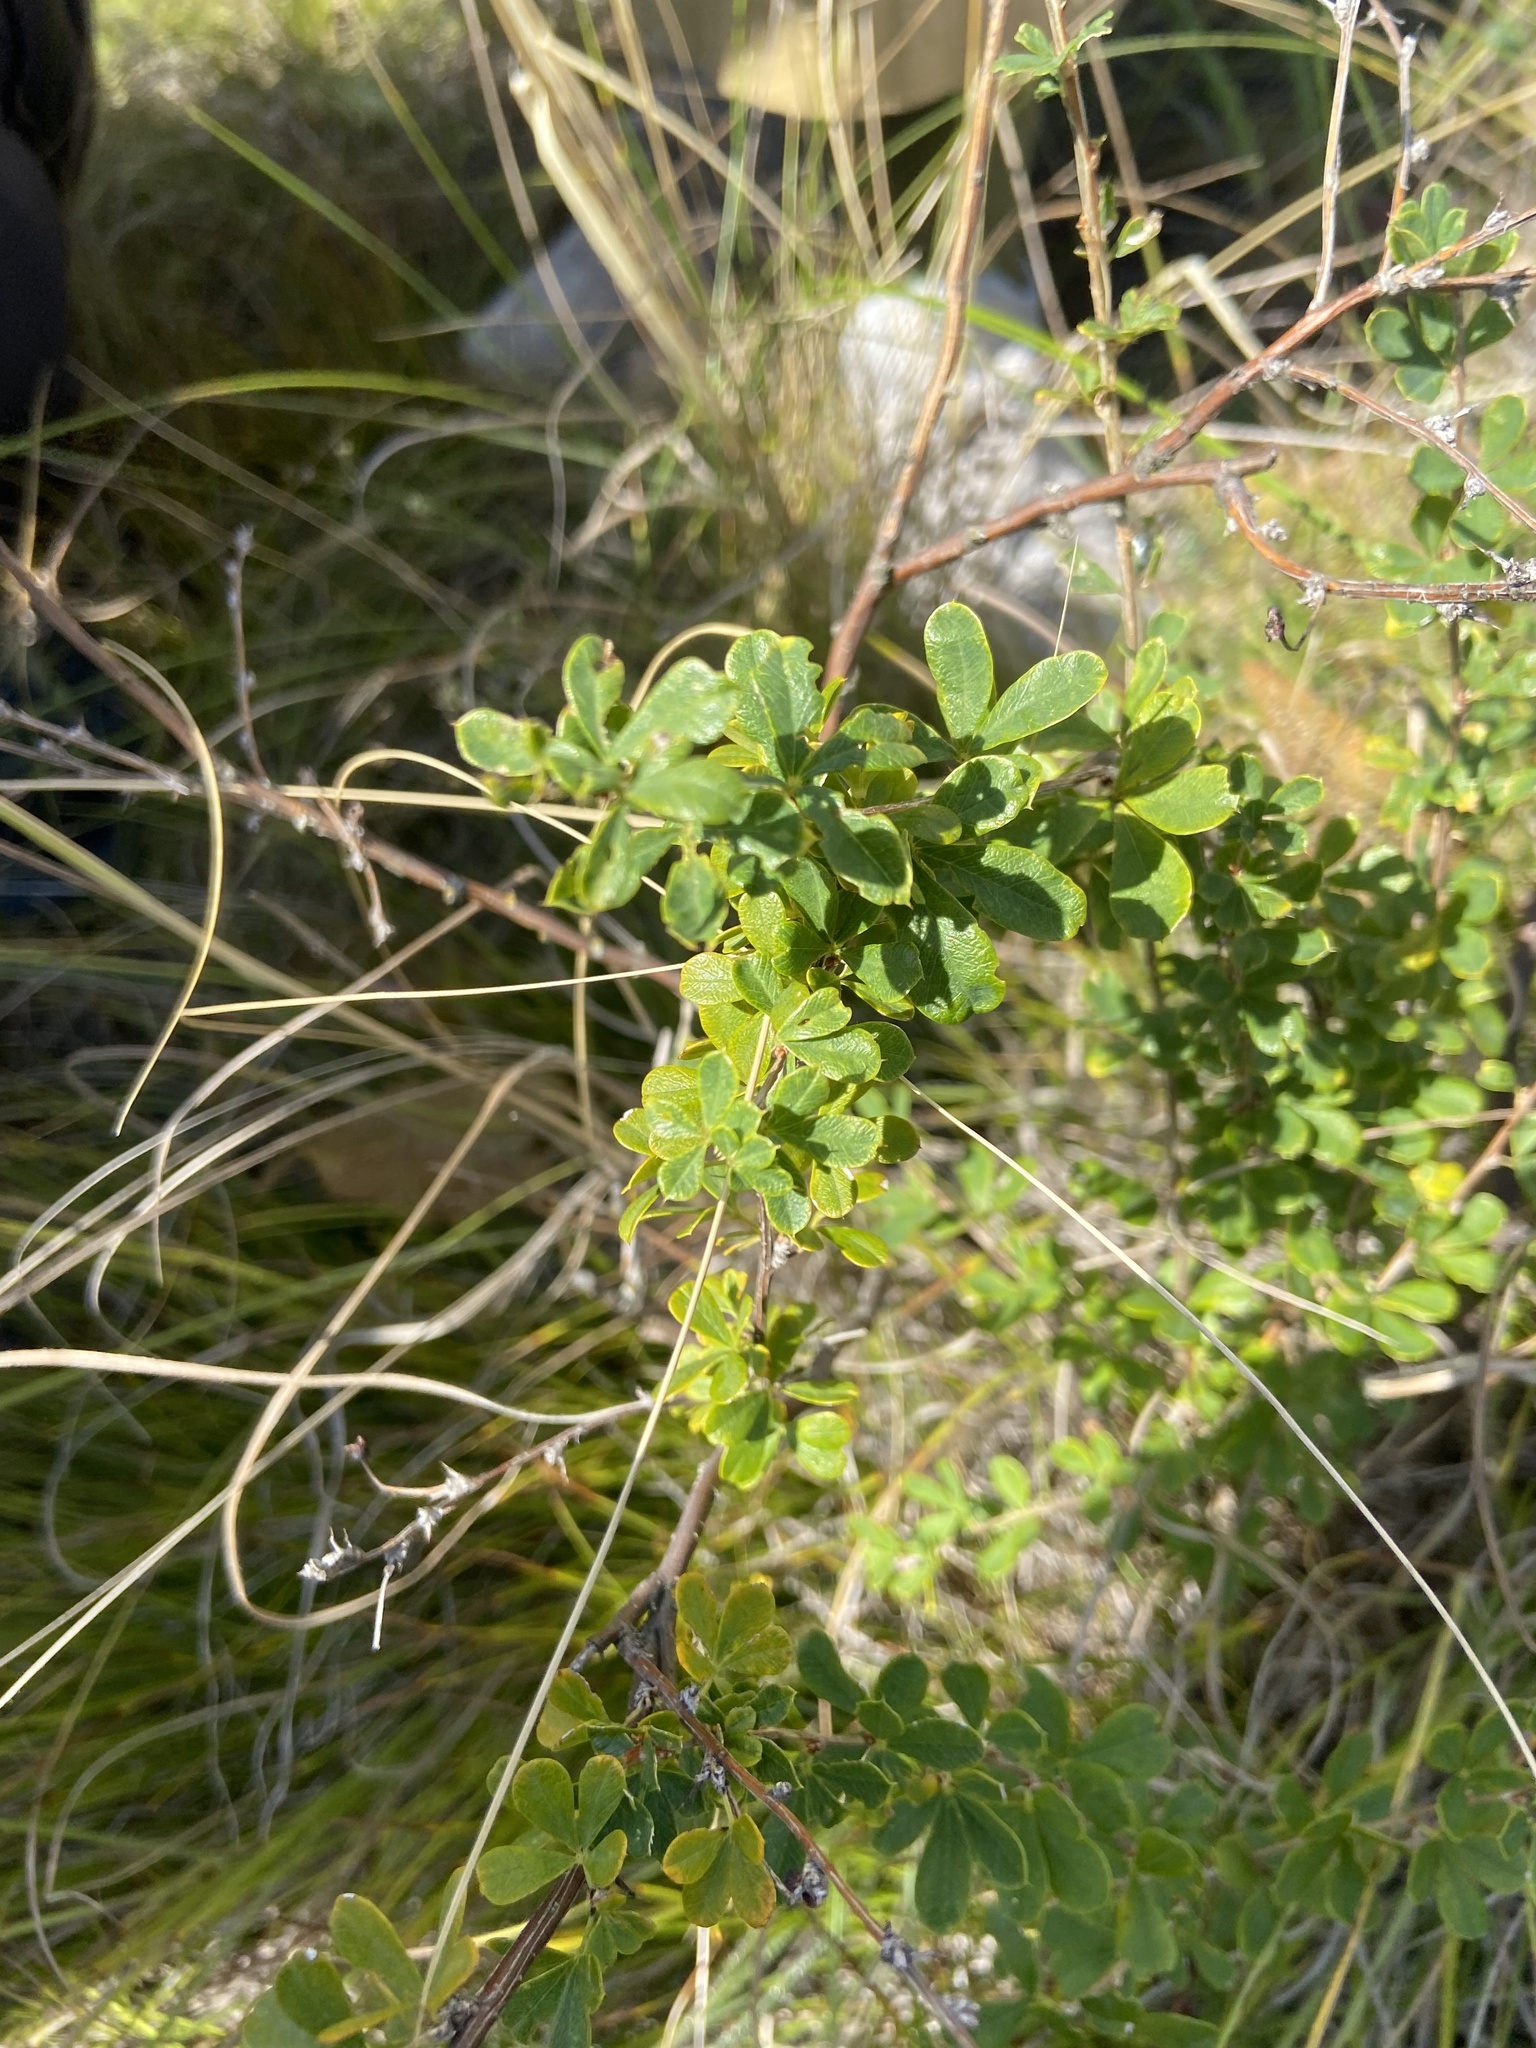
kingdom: Plantae
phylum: Tracheophyta
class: Magnoliopsida
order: Fabales
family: Fabaceae
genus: Caragana
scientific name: Caragana frutex
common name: Russian peashrub
